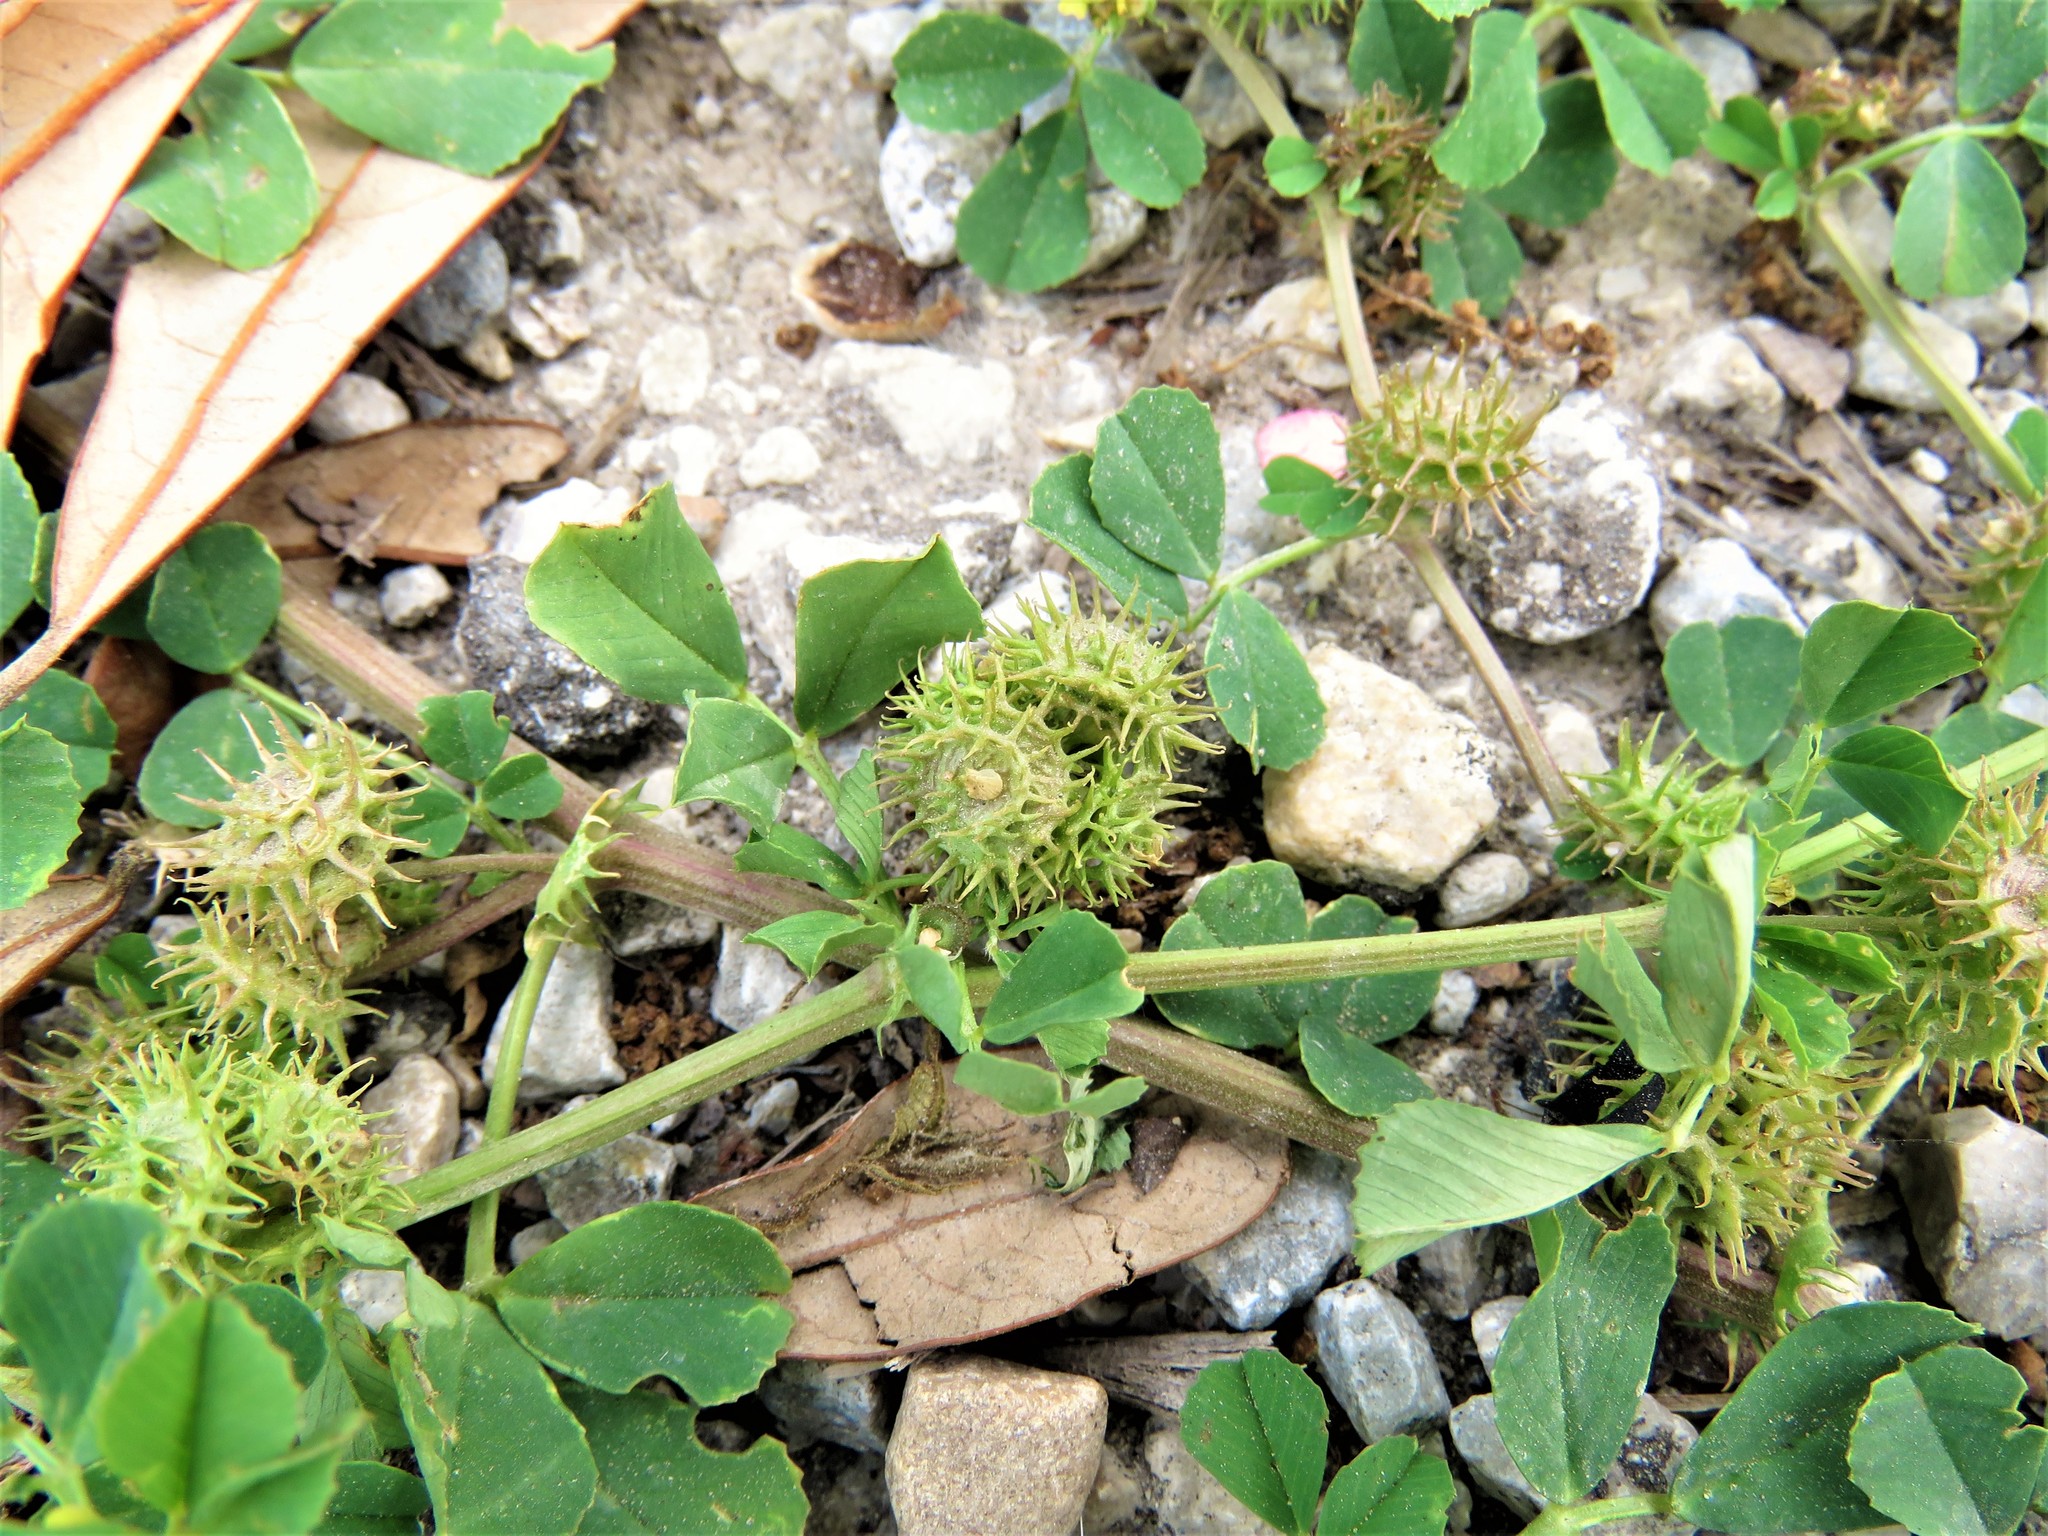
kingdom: Plantae
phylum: Tracheophyta
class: Magnoliopsida
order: Fabales
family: Fabaceae
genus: Medicago
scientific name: Medicago polymorpha
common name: Burclover
